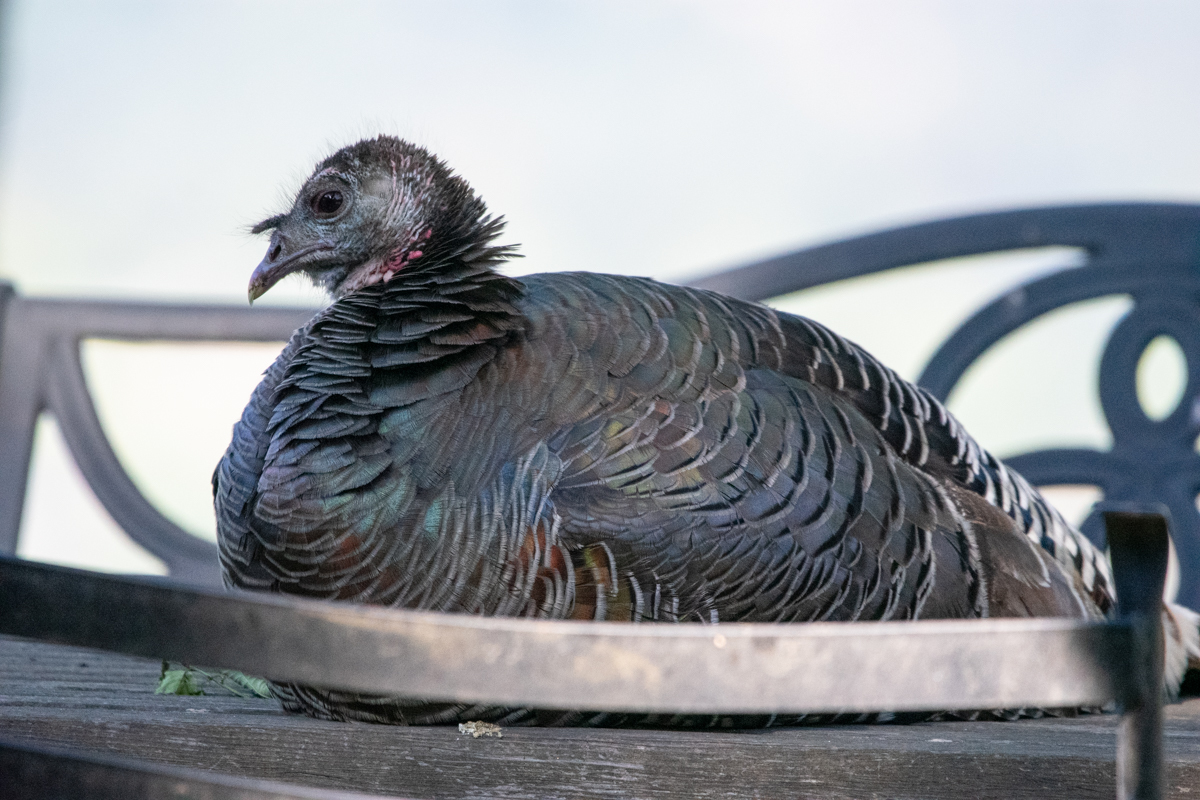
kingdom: Animalia
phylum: Chordata
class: Aves
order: Galliformes
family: Phasianidae
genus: Meleagris
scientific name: Meleagris gallopavo
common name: Wild turkey
